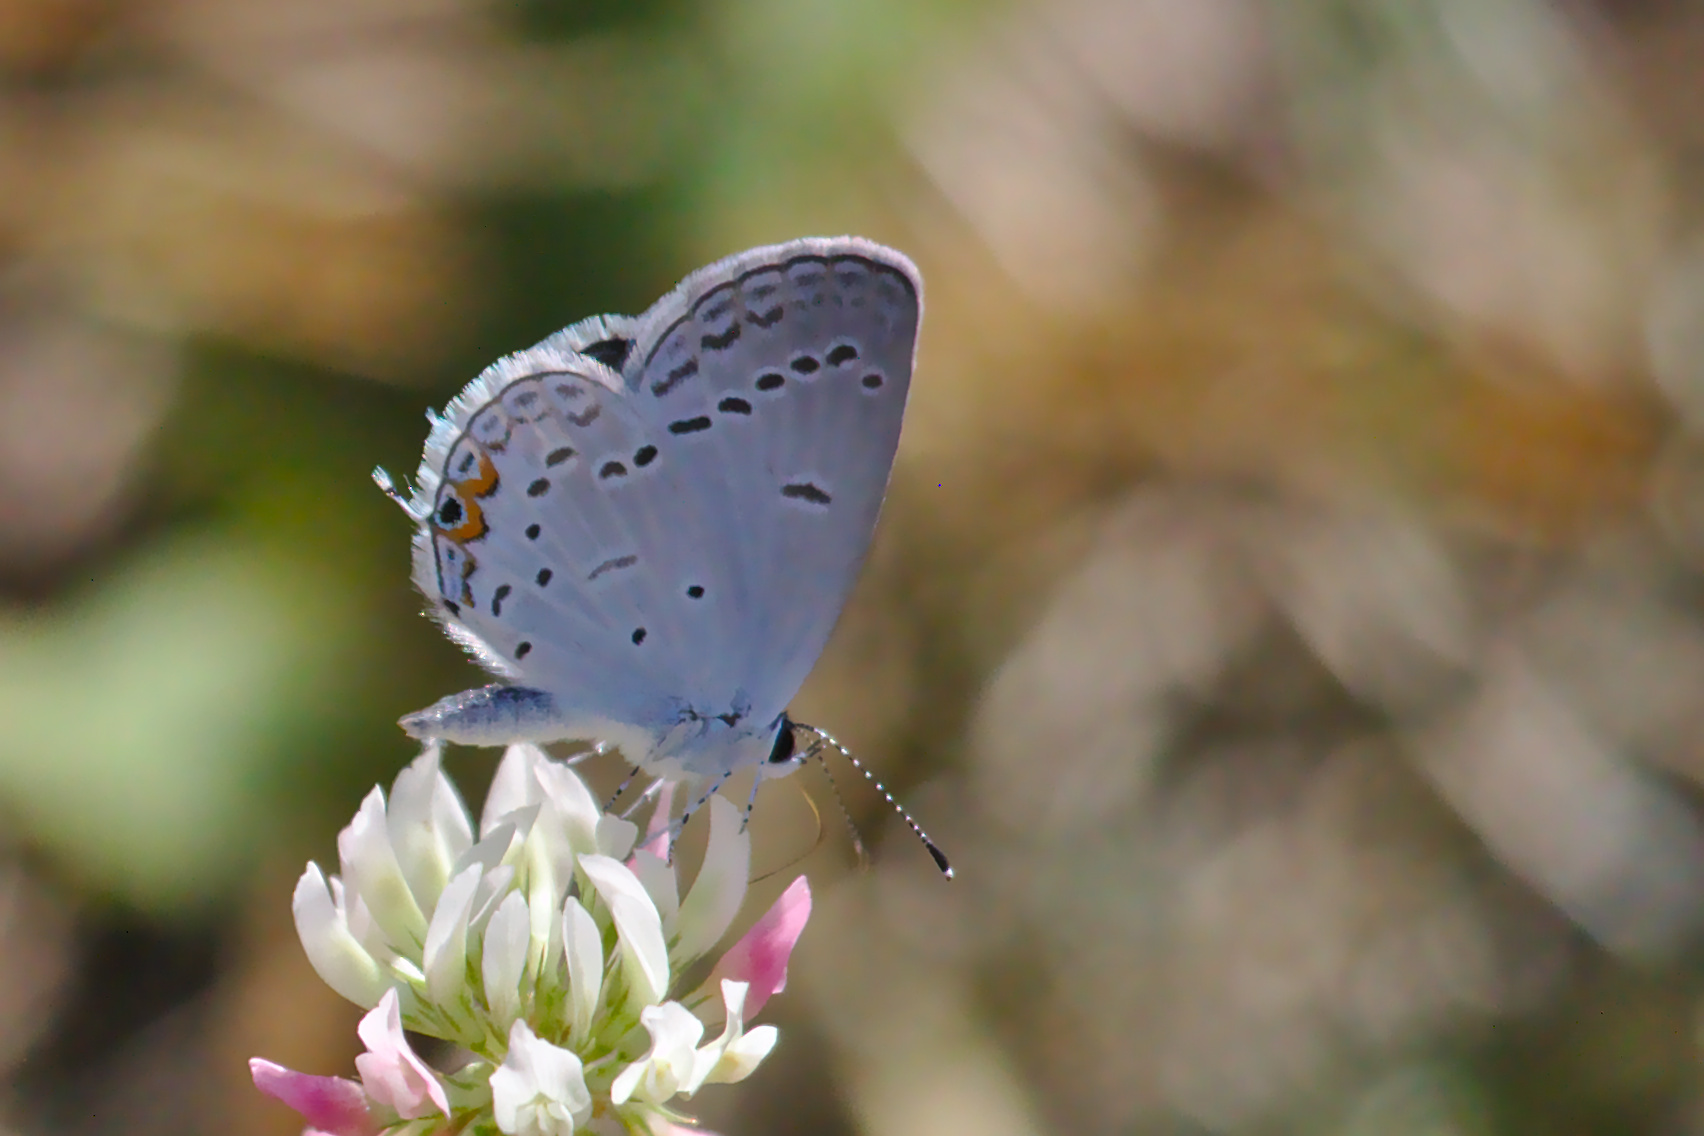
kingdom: Animalia
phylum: Arthropoda
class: Insecta
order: Lepidoptera
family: Lycaenidae
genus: Elkalyce
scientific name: Elkalyce comyntas
